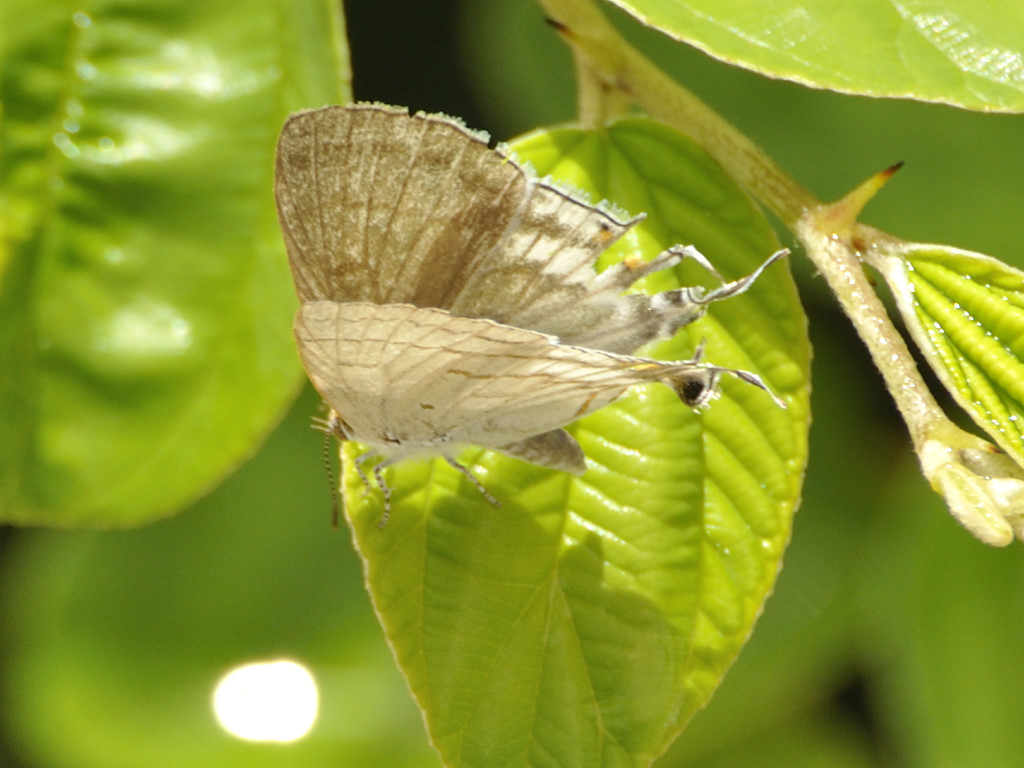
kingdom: Animalia
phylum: Arthropoda
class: Insecta
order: Lepidoptera
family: Lycaenidae
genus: Hypolycaena
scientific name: Hypolycaena philippus
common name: Common hairstreak
